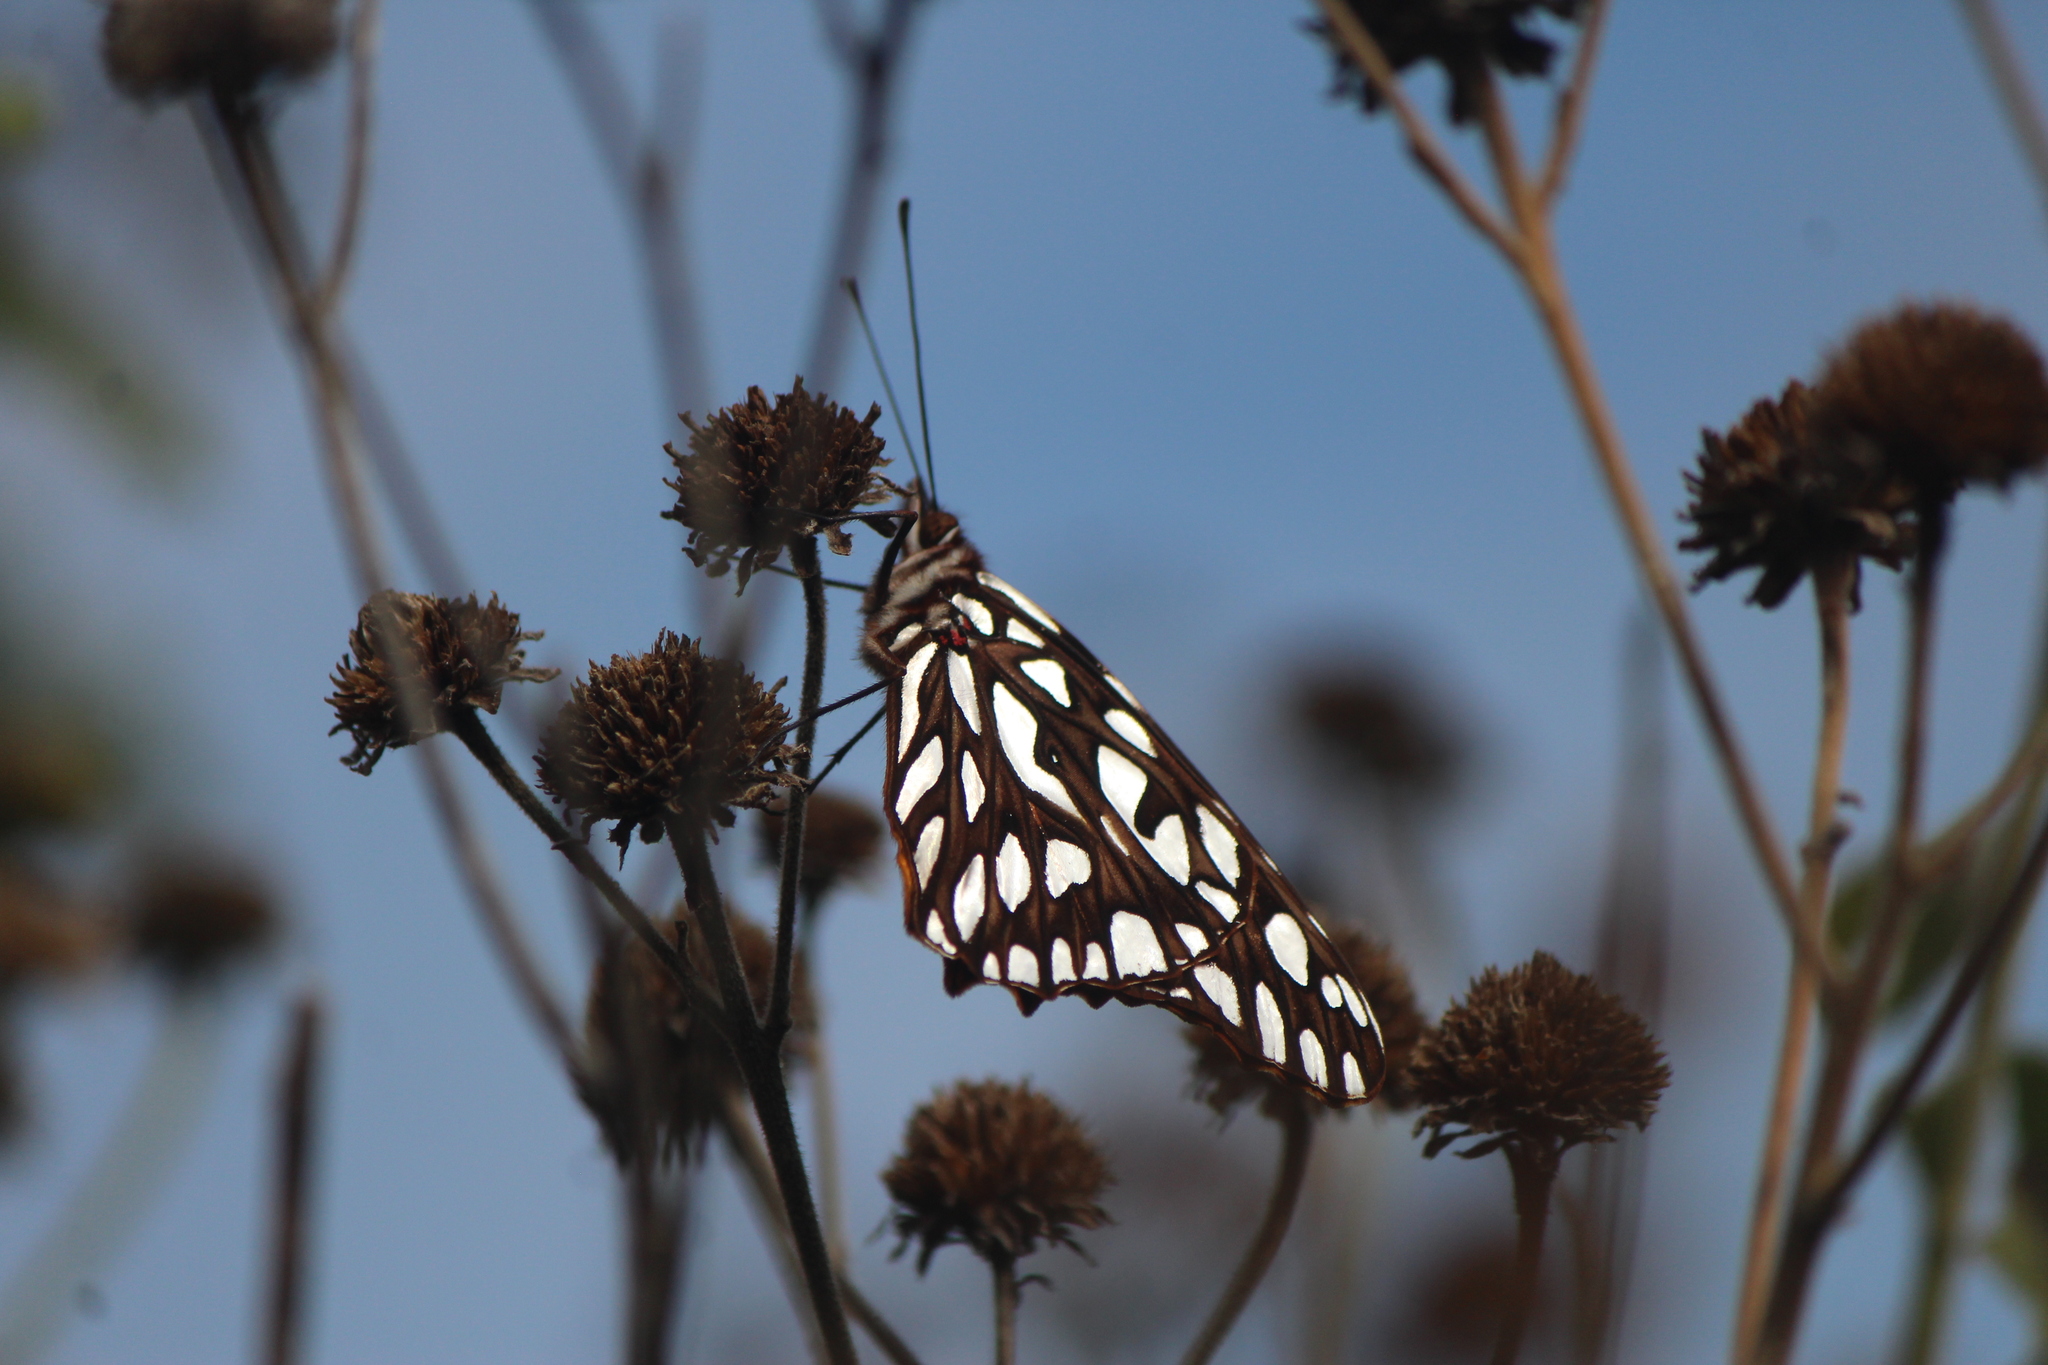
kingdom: Animalia
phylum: Arthropoda
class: Insecta
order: Lepidoptera
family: Nymphalidae
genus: Dione
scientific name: Dione moneta
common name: Mexican silverspot
